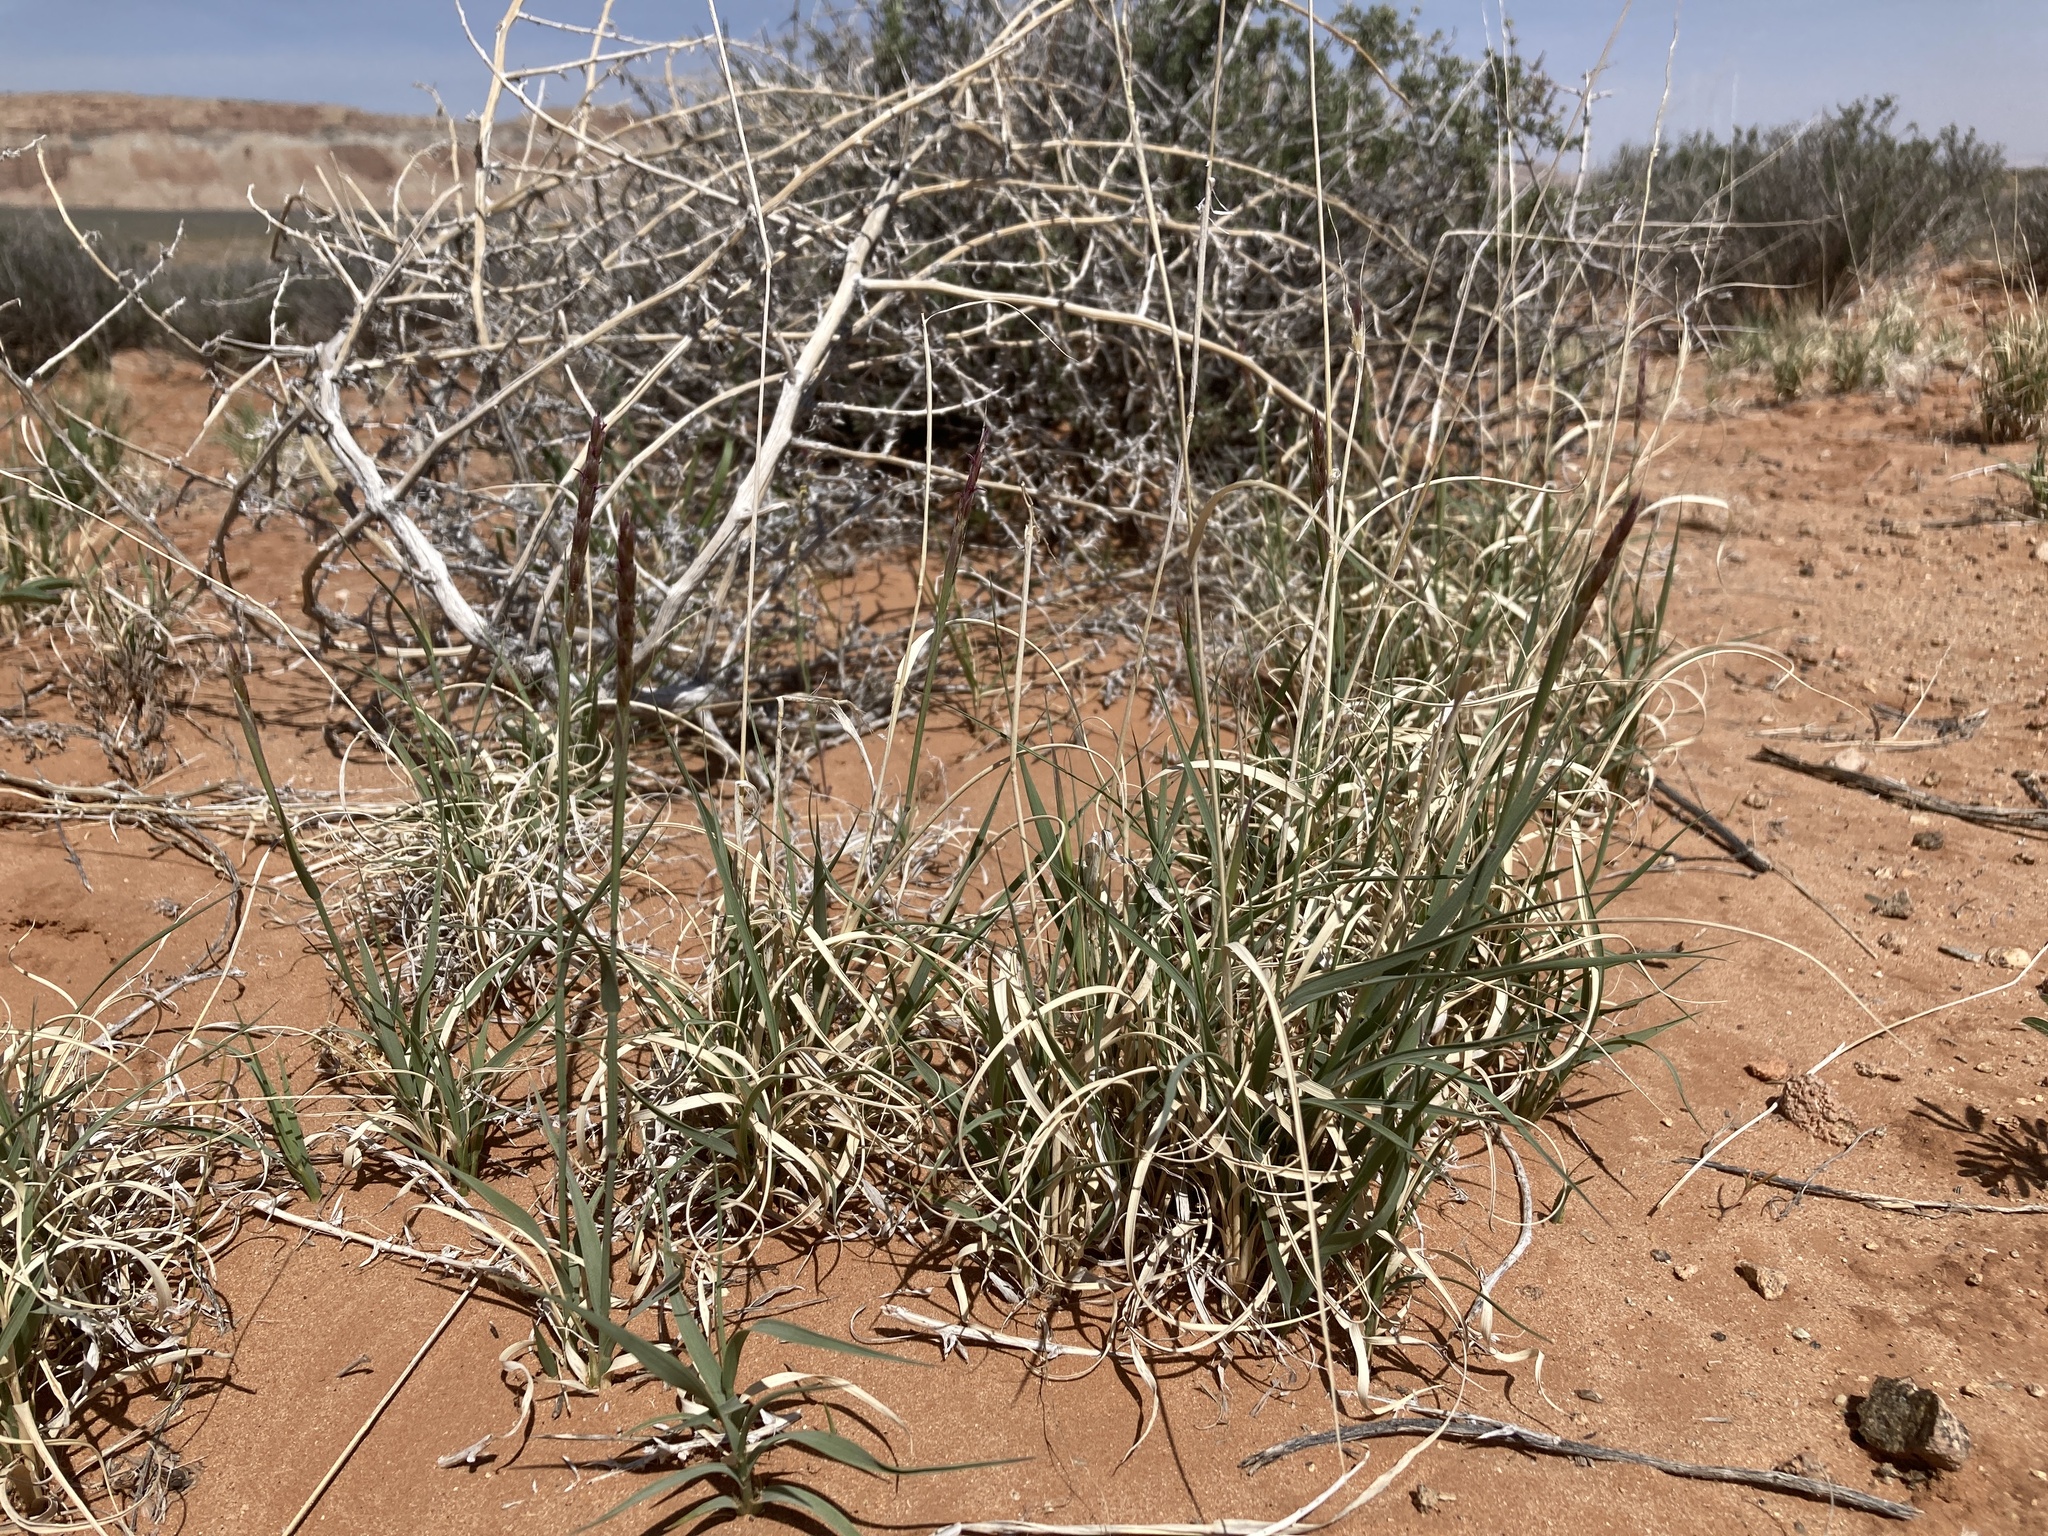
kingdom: Plantae
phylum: Tracheophyta
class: Liliopsida
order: Poales
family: Poaceae
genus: Hilaria
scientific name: Hilaria jamesii
